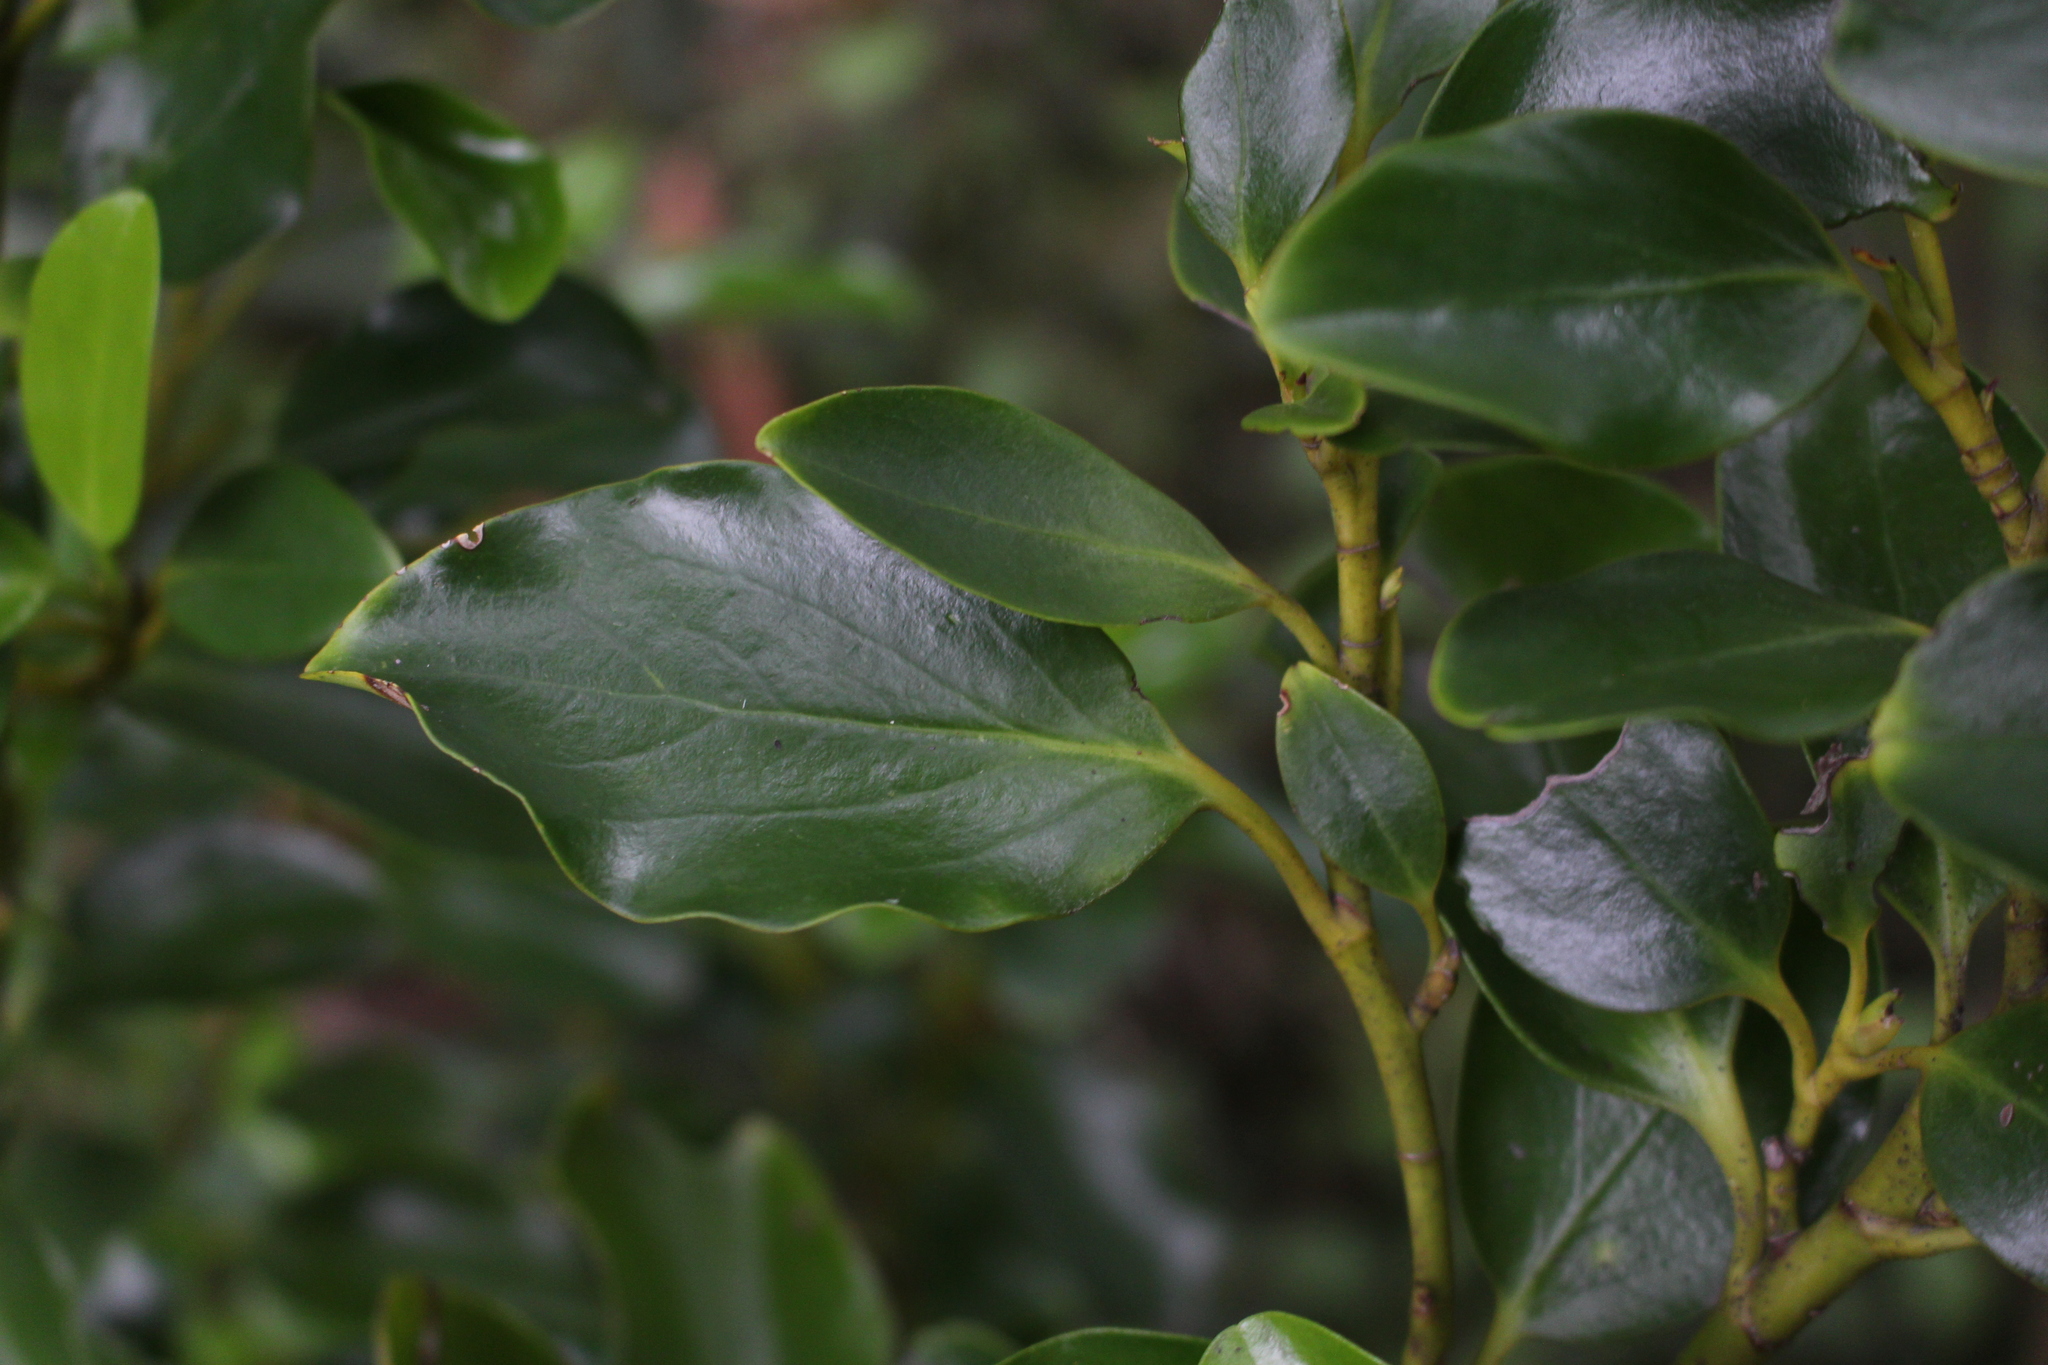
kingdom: Plantae
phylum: Tracheophyta
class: Magnoliopsida
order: Apiales
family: Griseliniaceae
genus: Griselinia
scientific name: Griselinia littoralis
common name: New zealand broadleaf
